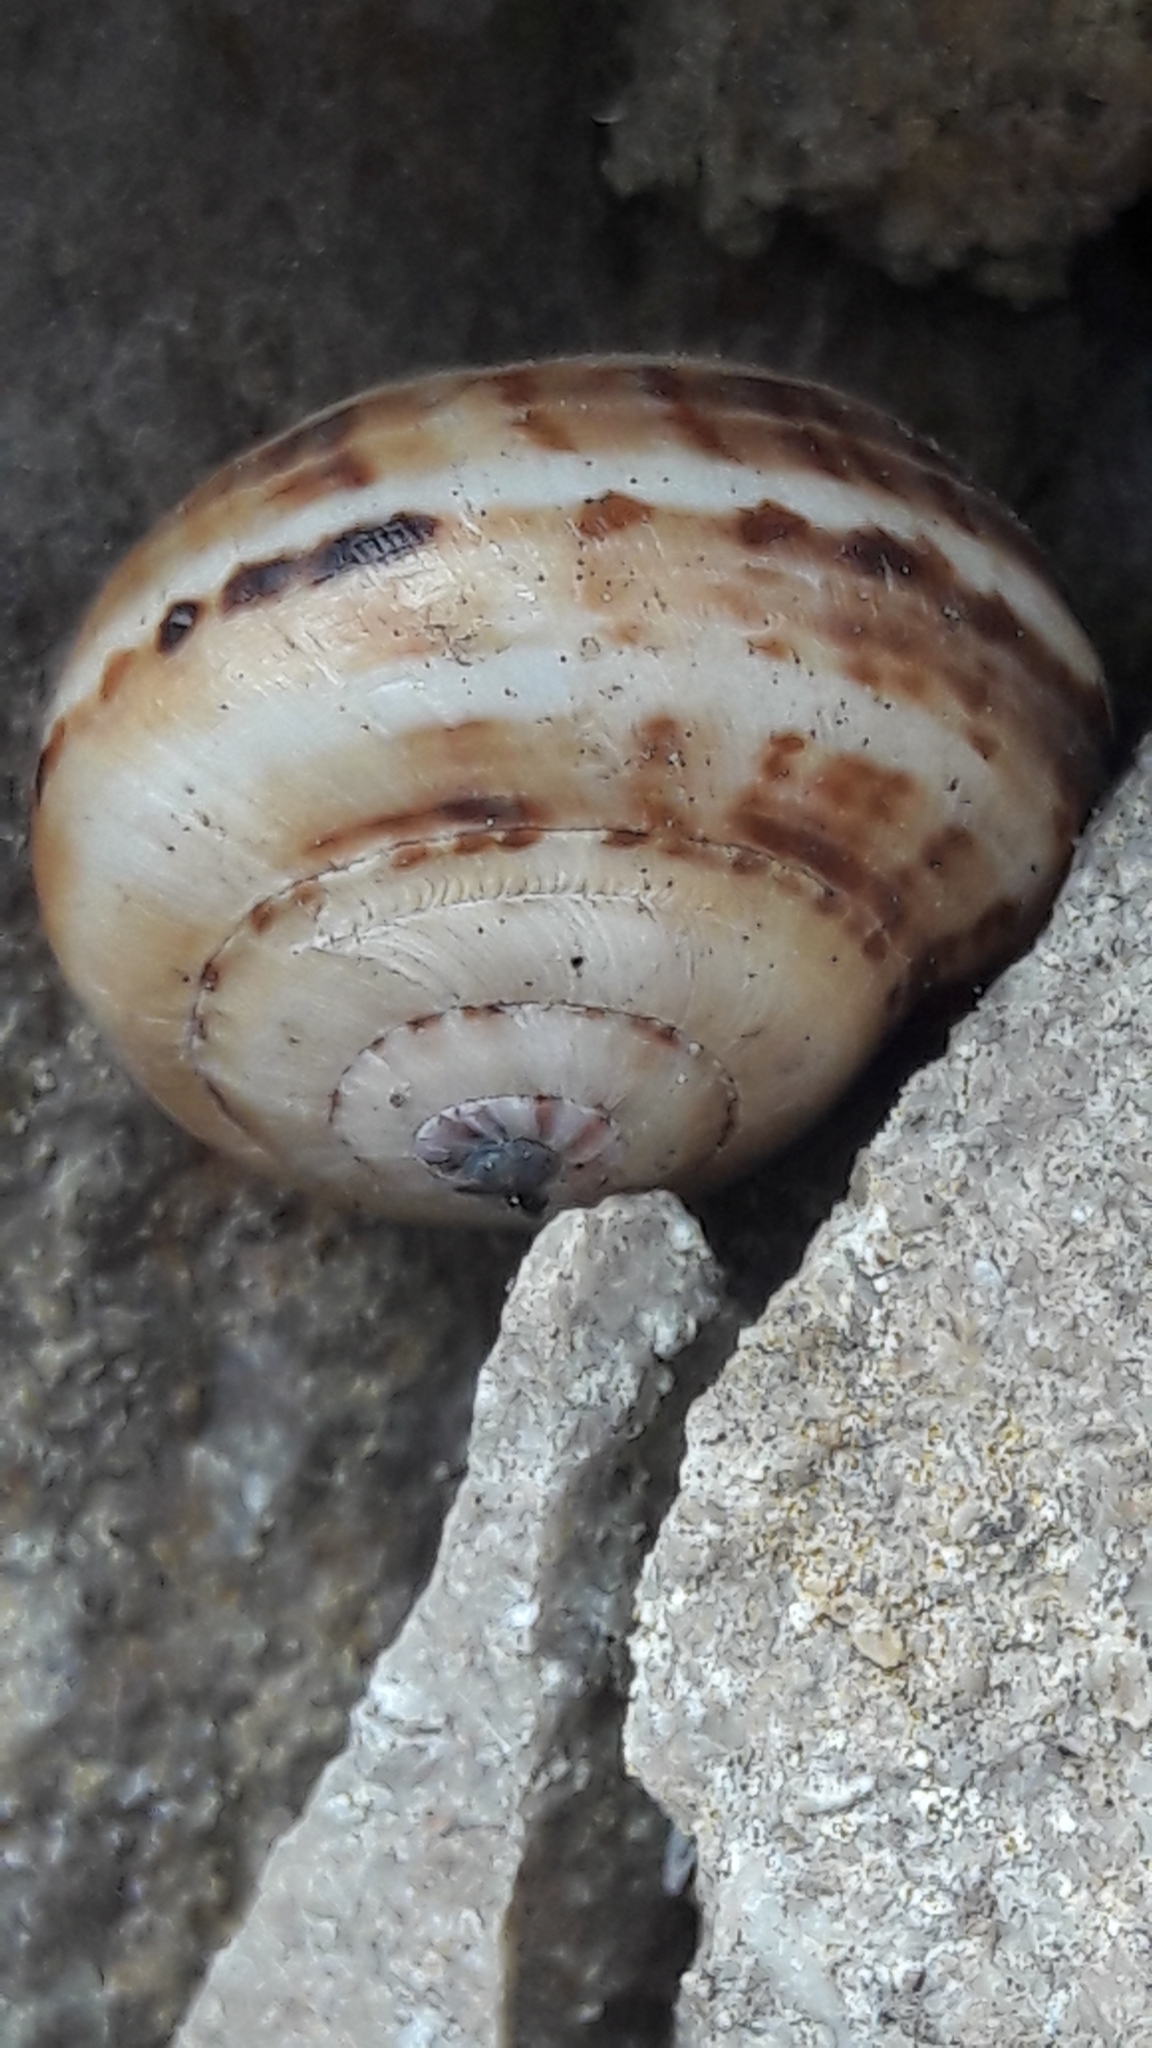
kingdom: Animalia
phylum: Mollusca
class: Gastropoda
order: Stylommatophora
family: Helicidae
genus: Theba
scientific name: Theba pisana
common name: White snail
